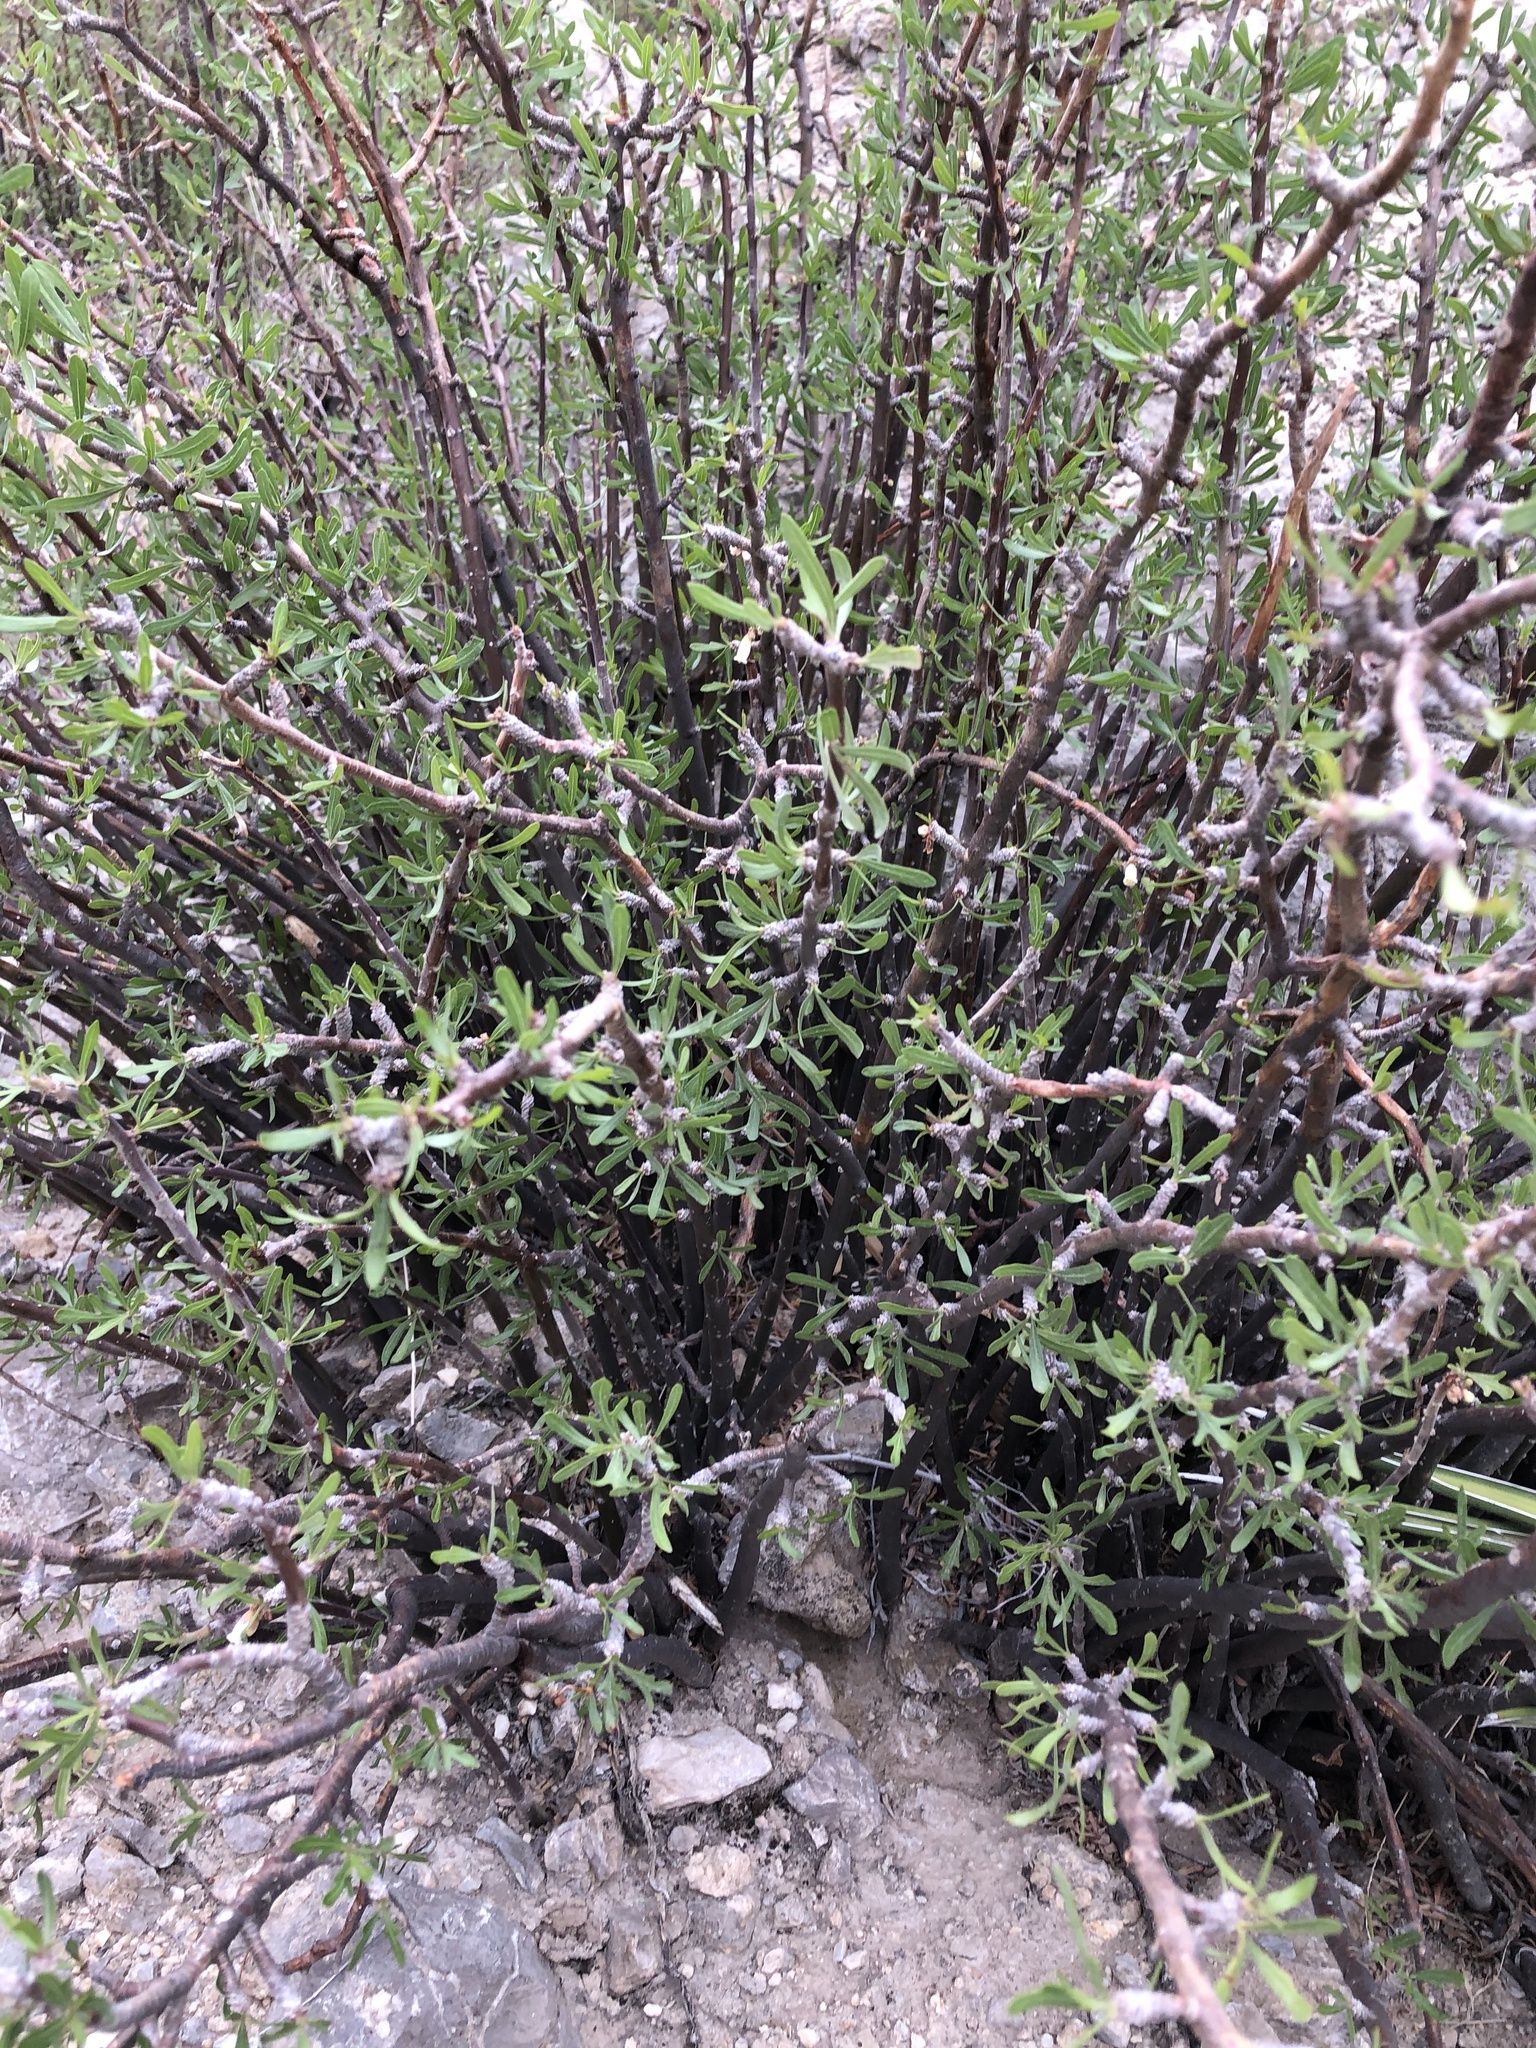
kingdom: Plantae
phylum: Tracheophyta
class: Magnoliopsida
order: Malpighiales
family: Euphorbiaceae
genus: Jatropha
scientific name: Jatropha dioica
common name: Leatherstem
